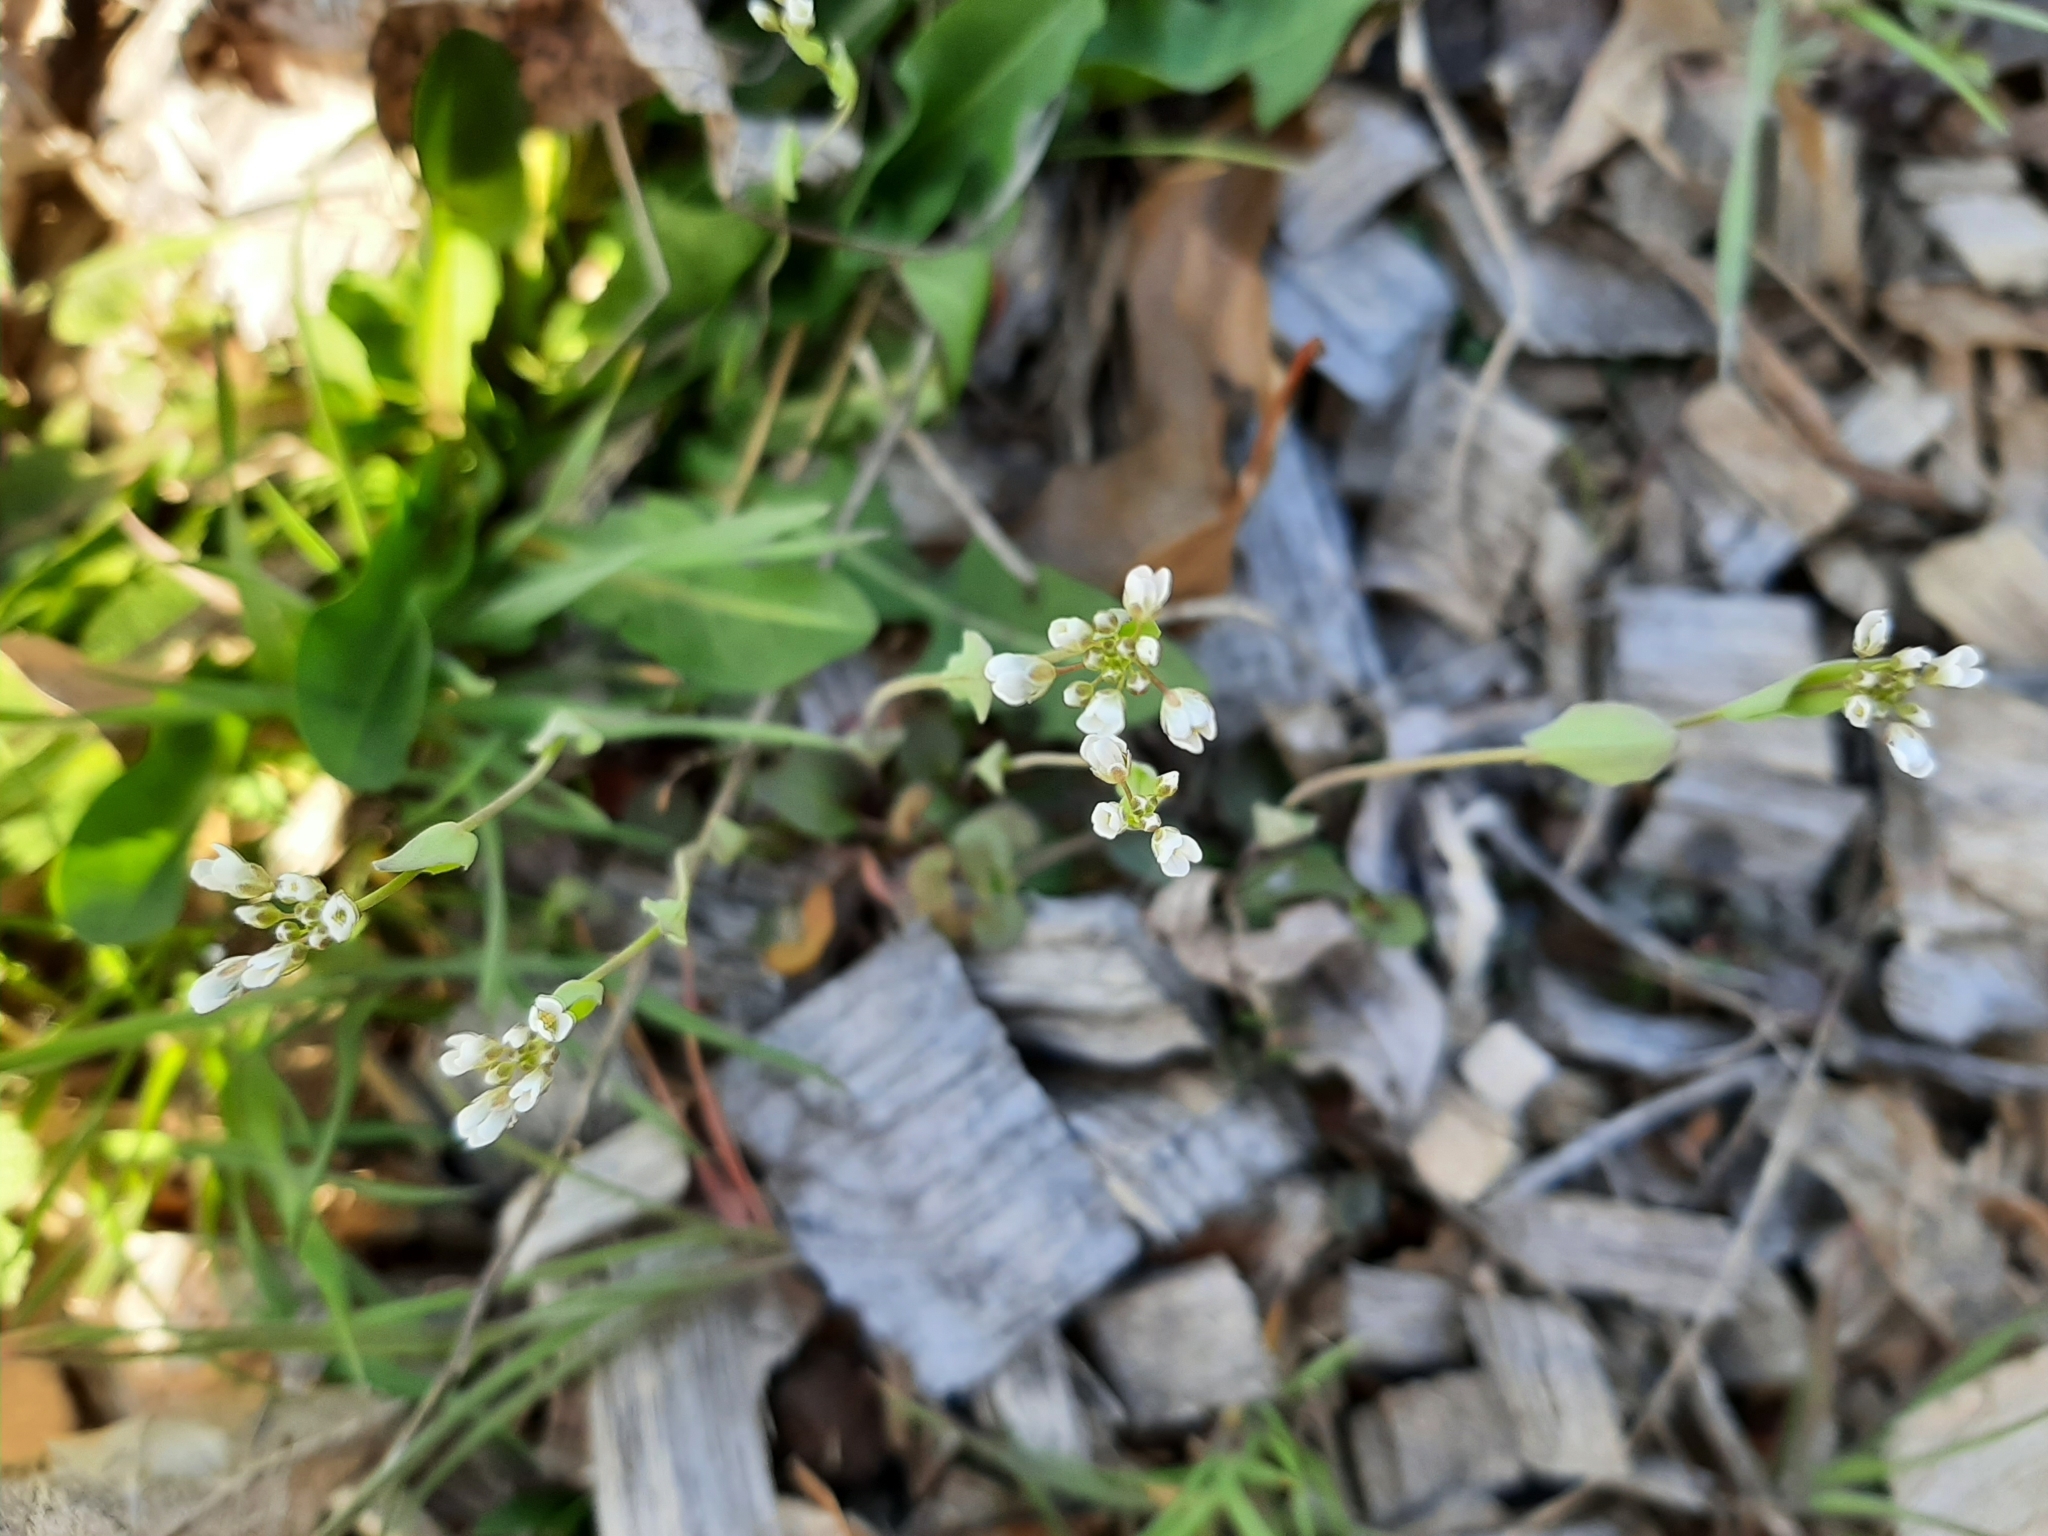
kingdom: Plantae
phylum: Tracheophyta
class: Magnoliopsida
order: Brassicales
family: Brassicaceae
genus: Noccaea
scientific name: Noccaea perfoliata
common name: Perfoliate pennycress
